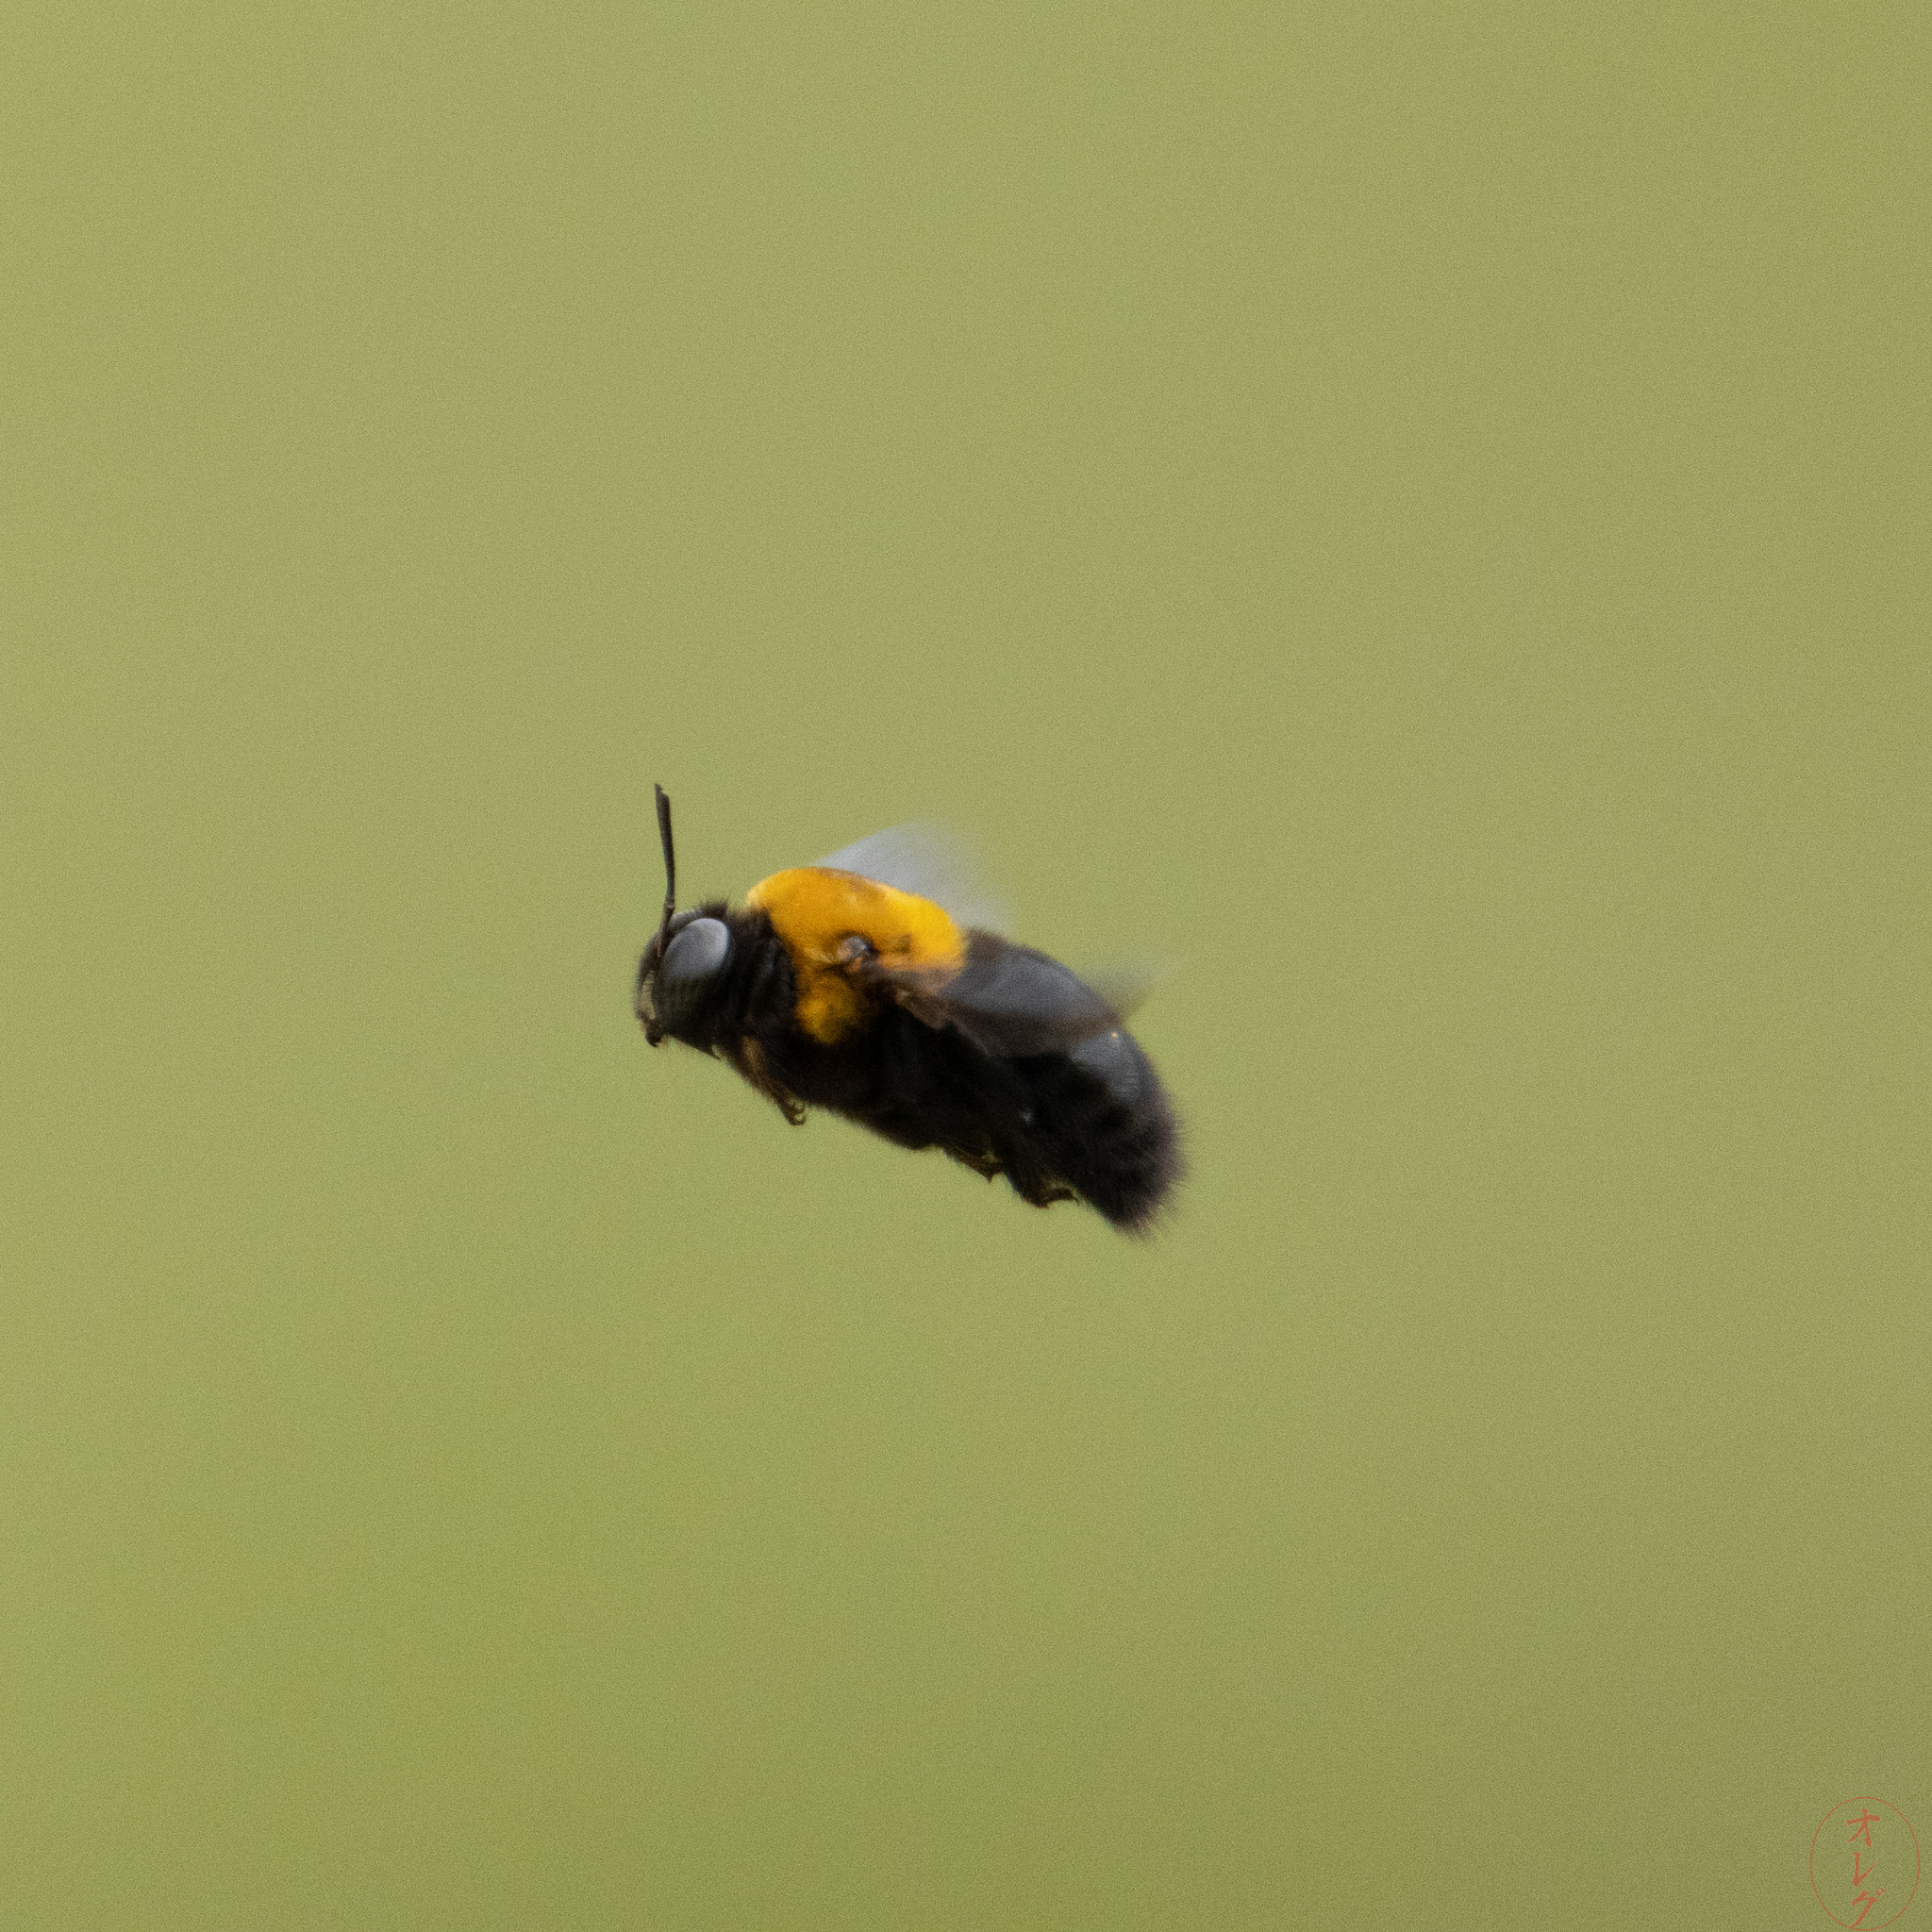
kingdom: Animalia
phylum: Arthropoda
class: Insecta
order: Hymenoptera
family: Apidae
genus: Xylocopa
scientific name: Xylocopa appendiculata
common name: Japanese carpenter bee
